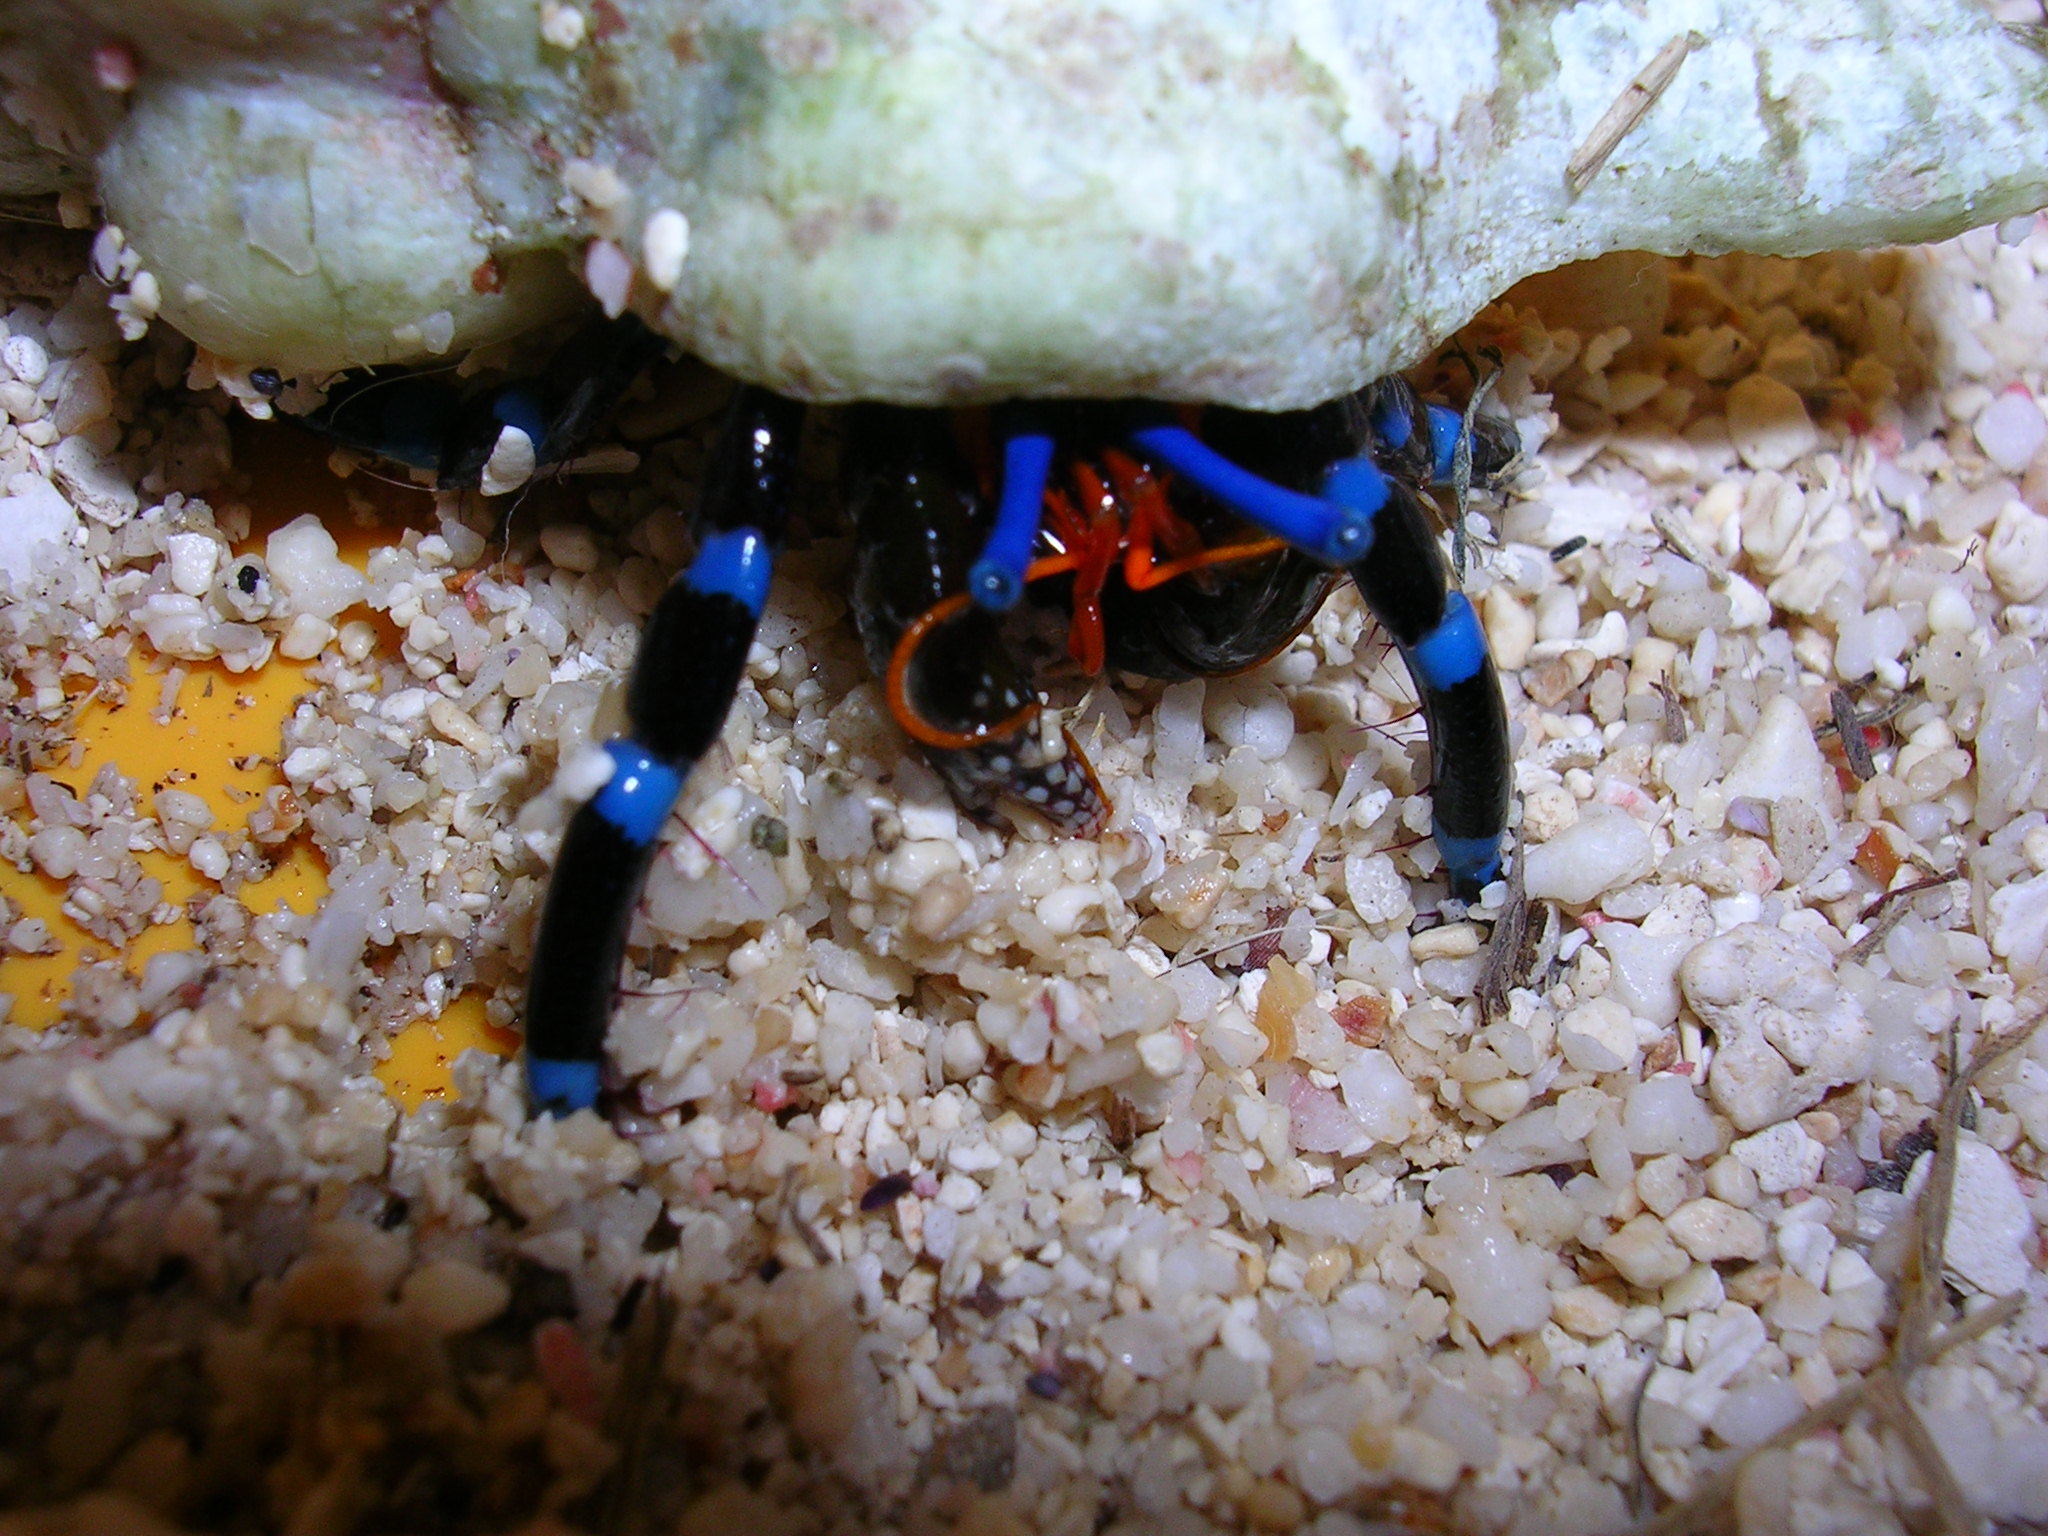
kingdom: Animalia
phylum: Arthropoda
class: Malacostraca
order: Decapoda
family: Diogenidae
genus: Calcinus
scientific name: Calcinus elegans
